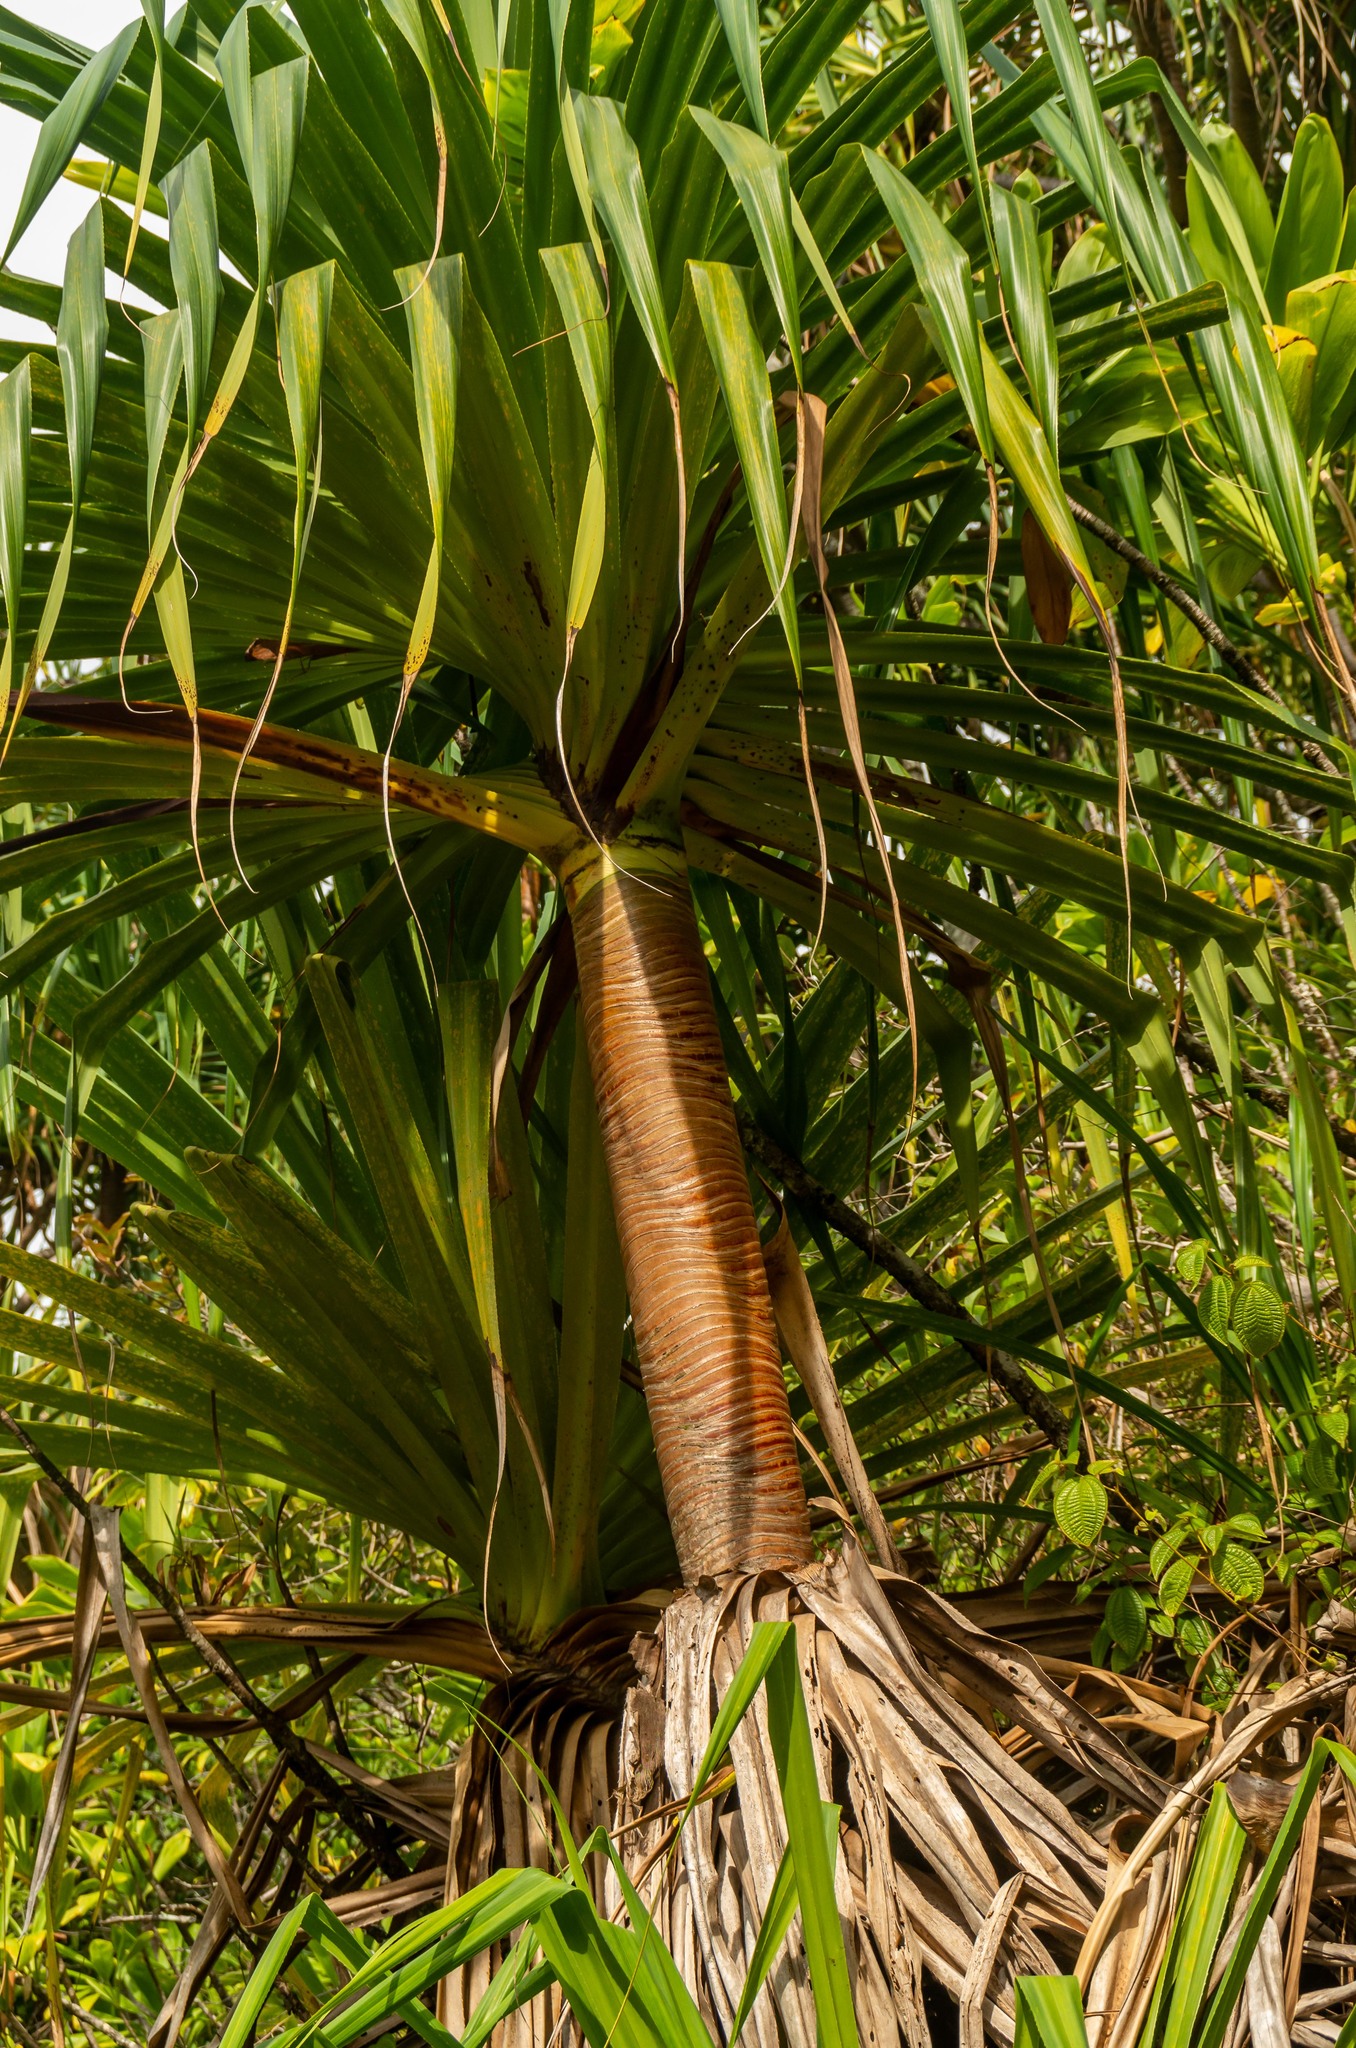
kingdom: Plantae
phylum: Tracheophyta
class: Liliopsida
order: Pandanales
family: Pandanaceae
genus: Pandanus
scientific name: Pandanus tectorius
